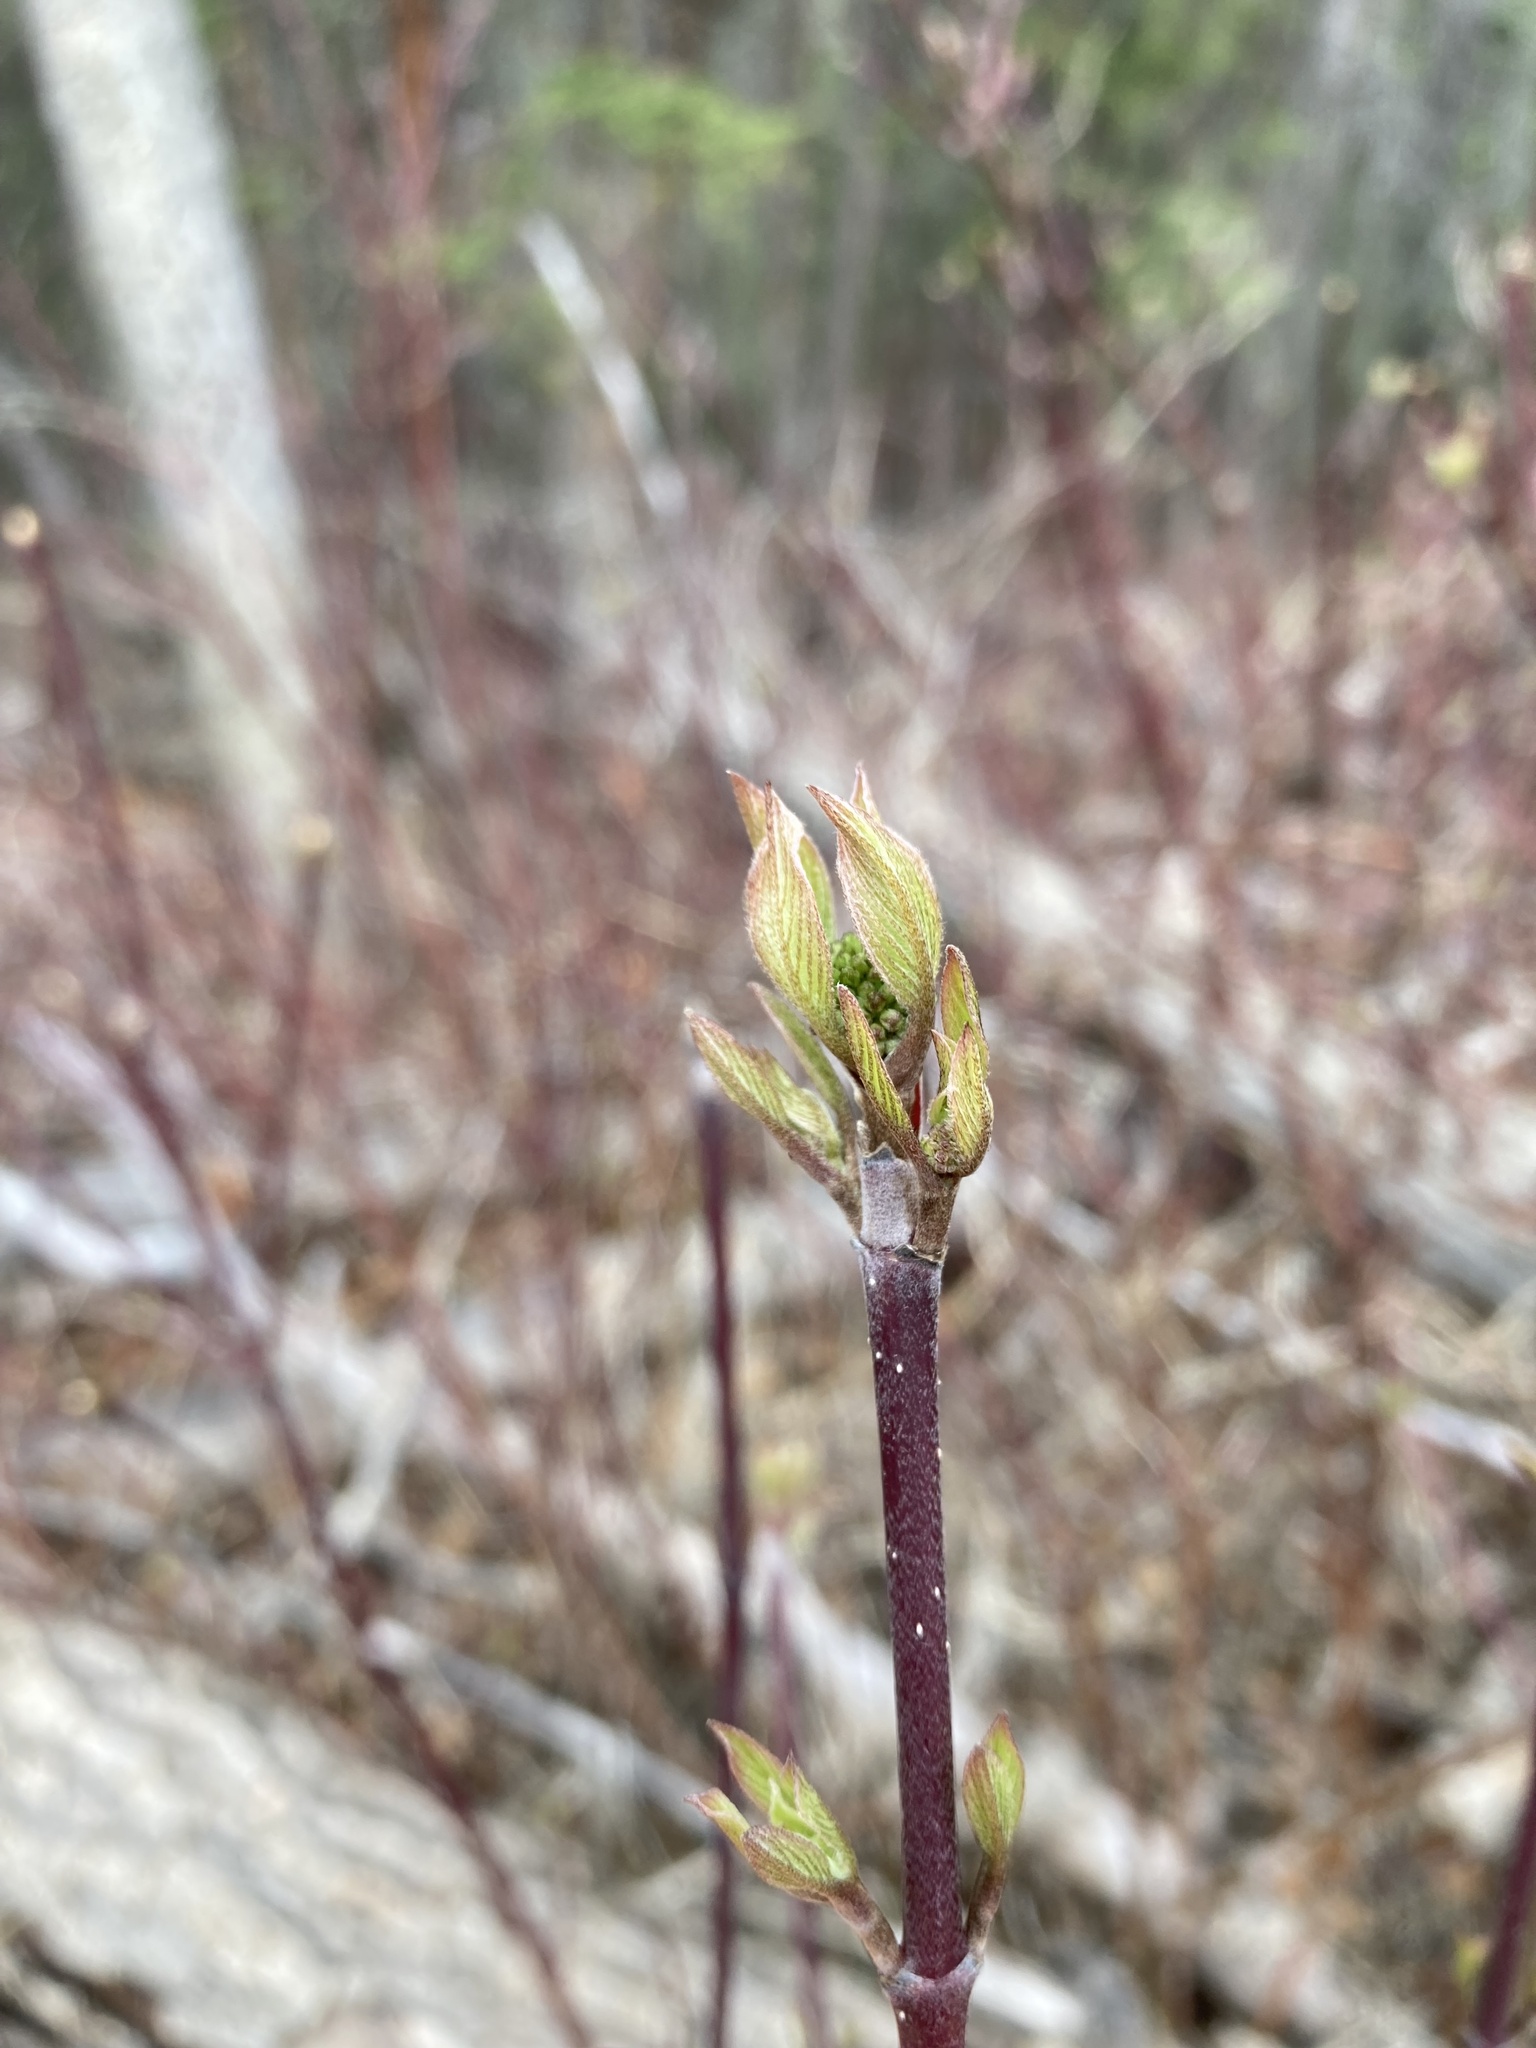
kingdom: Plantae
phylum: Tracheophyta
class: Magnoliopsida
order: Cornales
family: Cornaceae
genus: Cornus
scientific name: Cornus sericea
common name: Red-osier dogwood
